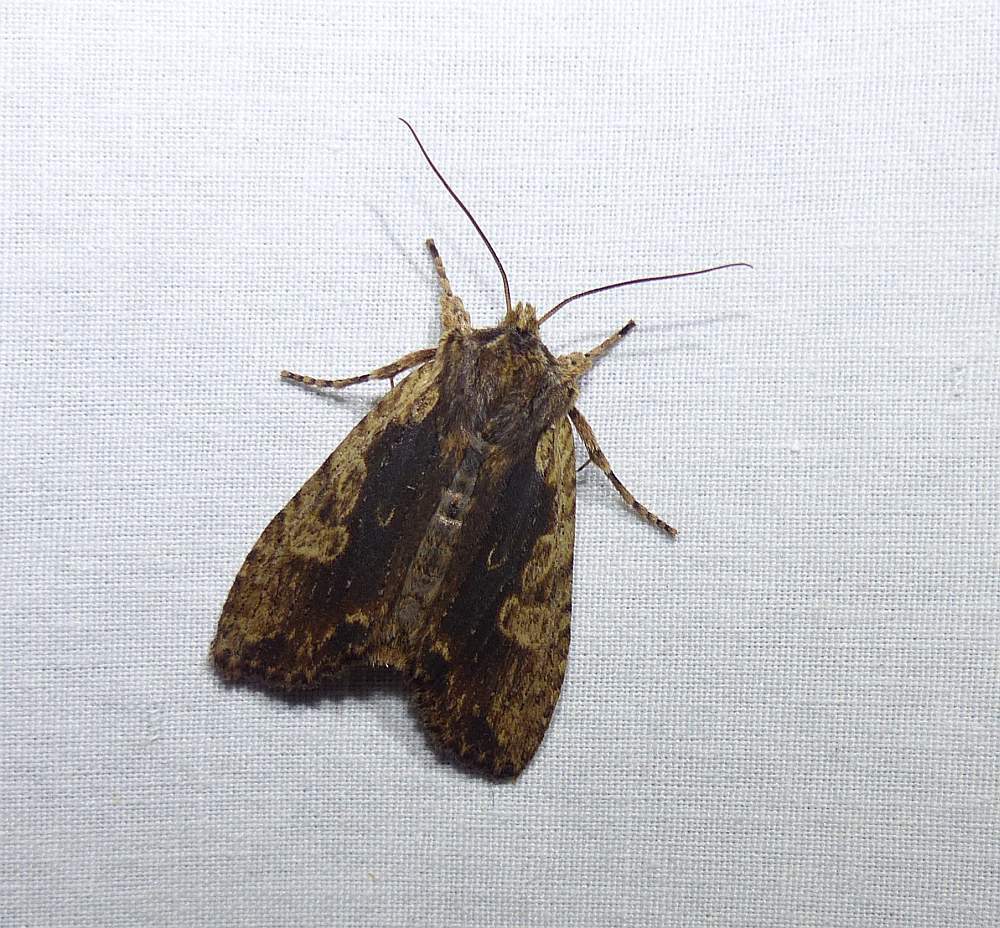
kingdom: Animalia
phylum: Arthropoda
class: Insecta
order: Lepidoptera
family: Noctuidae
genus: Lithophane
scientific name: Lithophane hemina
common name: Hemina pinion moth
